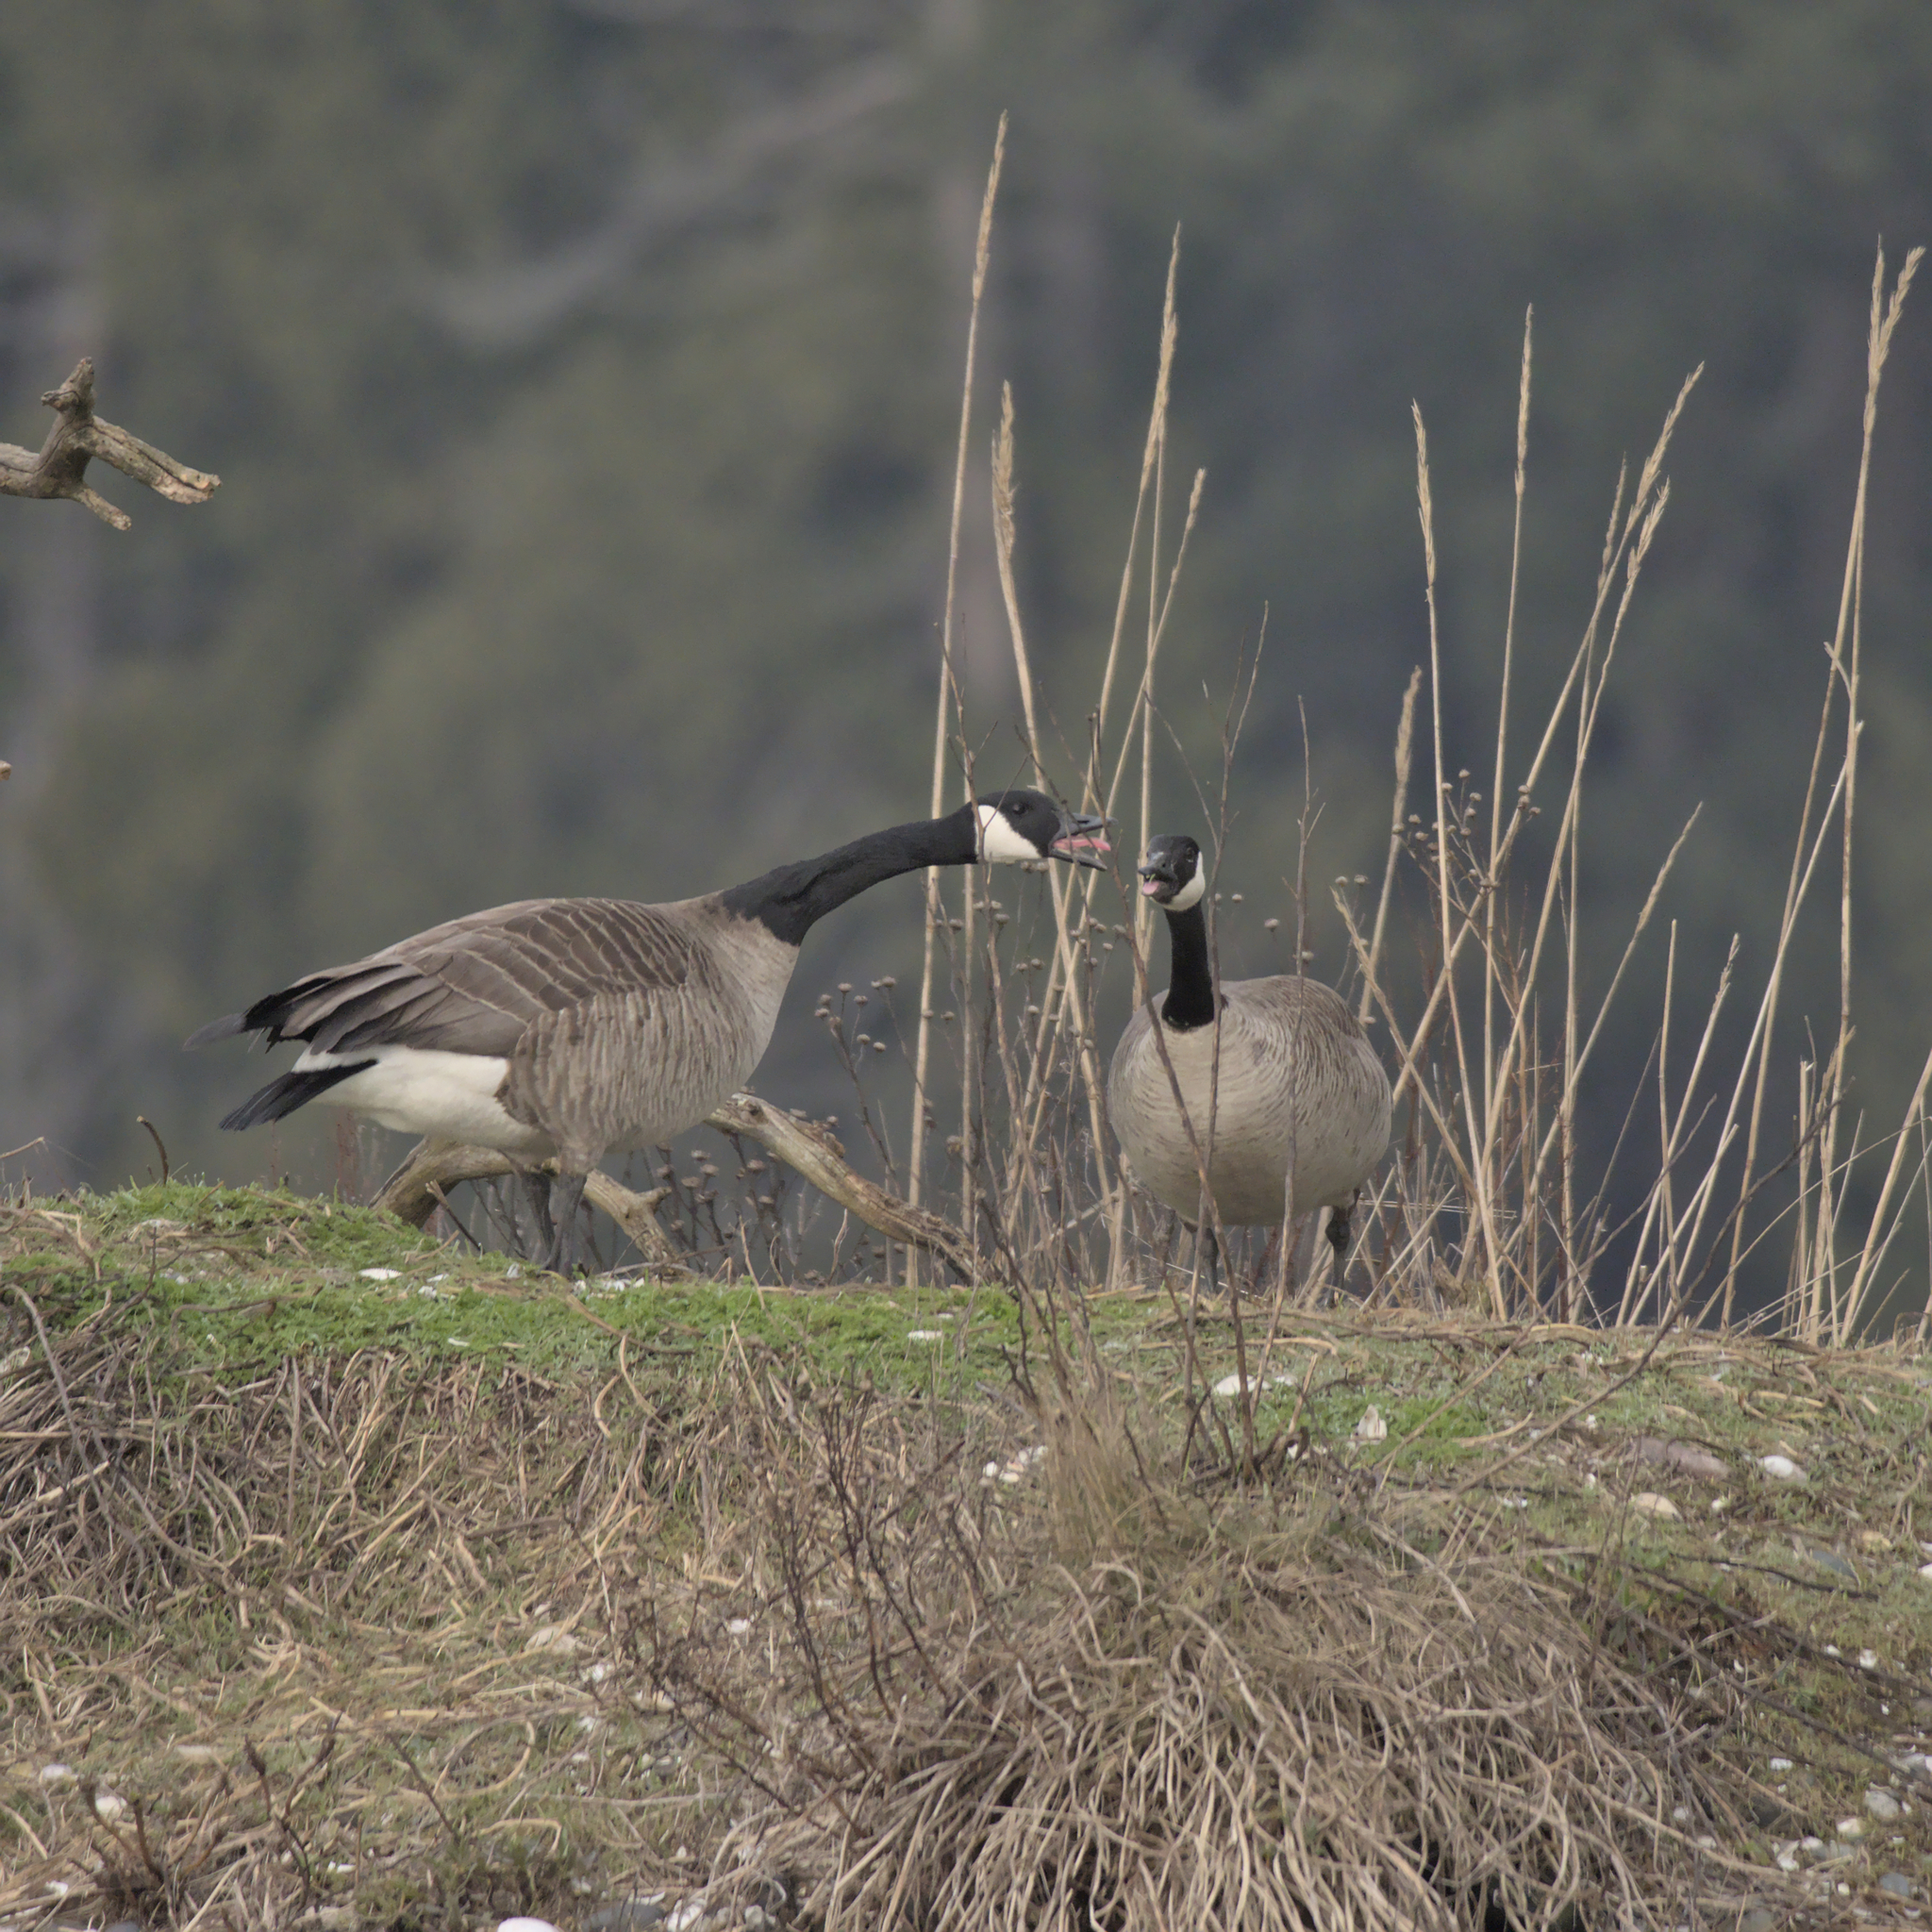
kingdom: Animalia
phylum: Chordata
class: Aves
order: Anseriformes
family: Anatidae
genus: Branta
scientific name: Branta canadensis
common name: Canada goose
